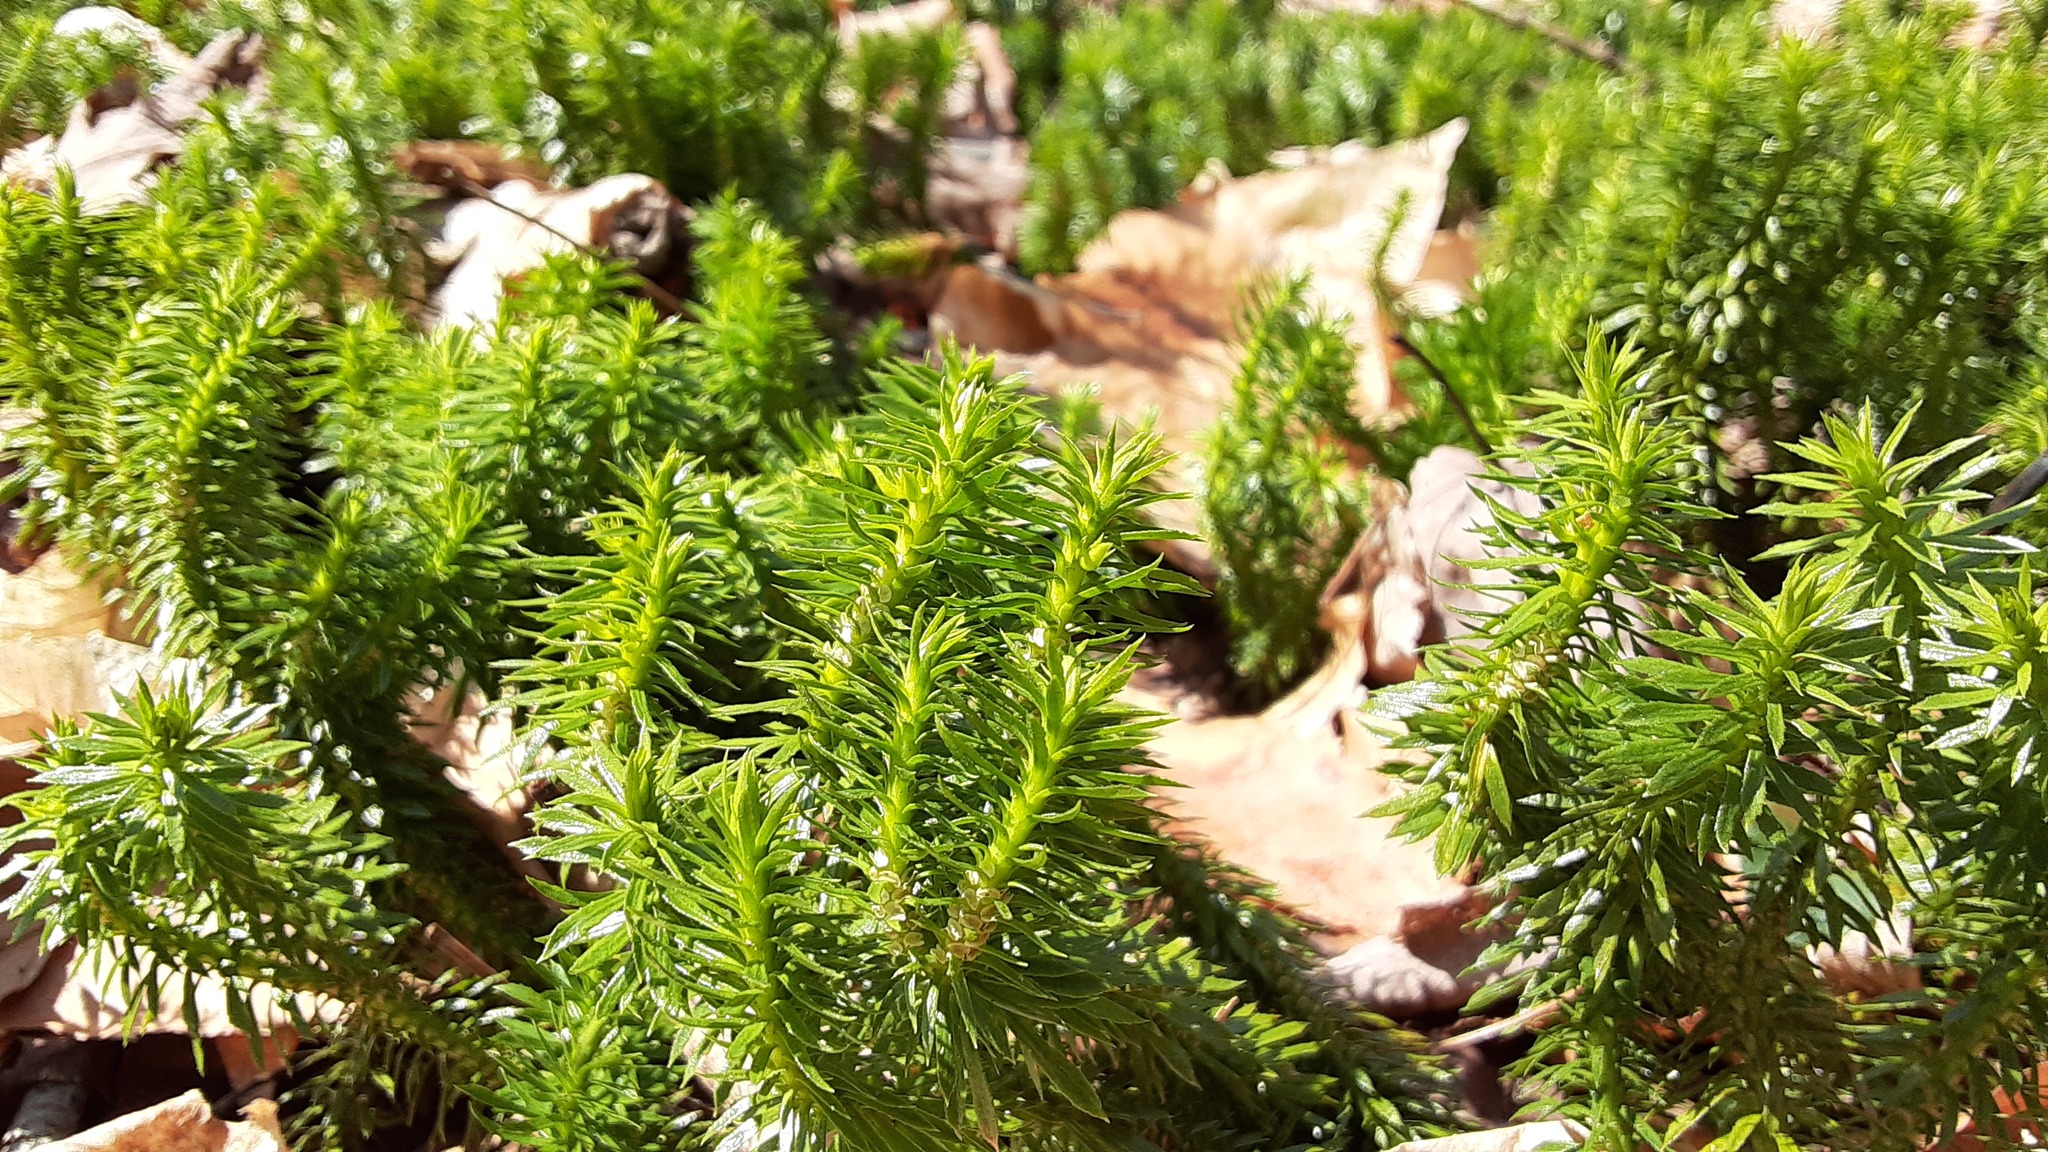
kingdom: Plantae
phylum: Tracheophyta
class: Lycopodiopsida
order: Lycopodiales
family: Lycopodiaceae
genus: Huperzia
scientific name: Huperzia lucidula
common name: Shining clubmoss
